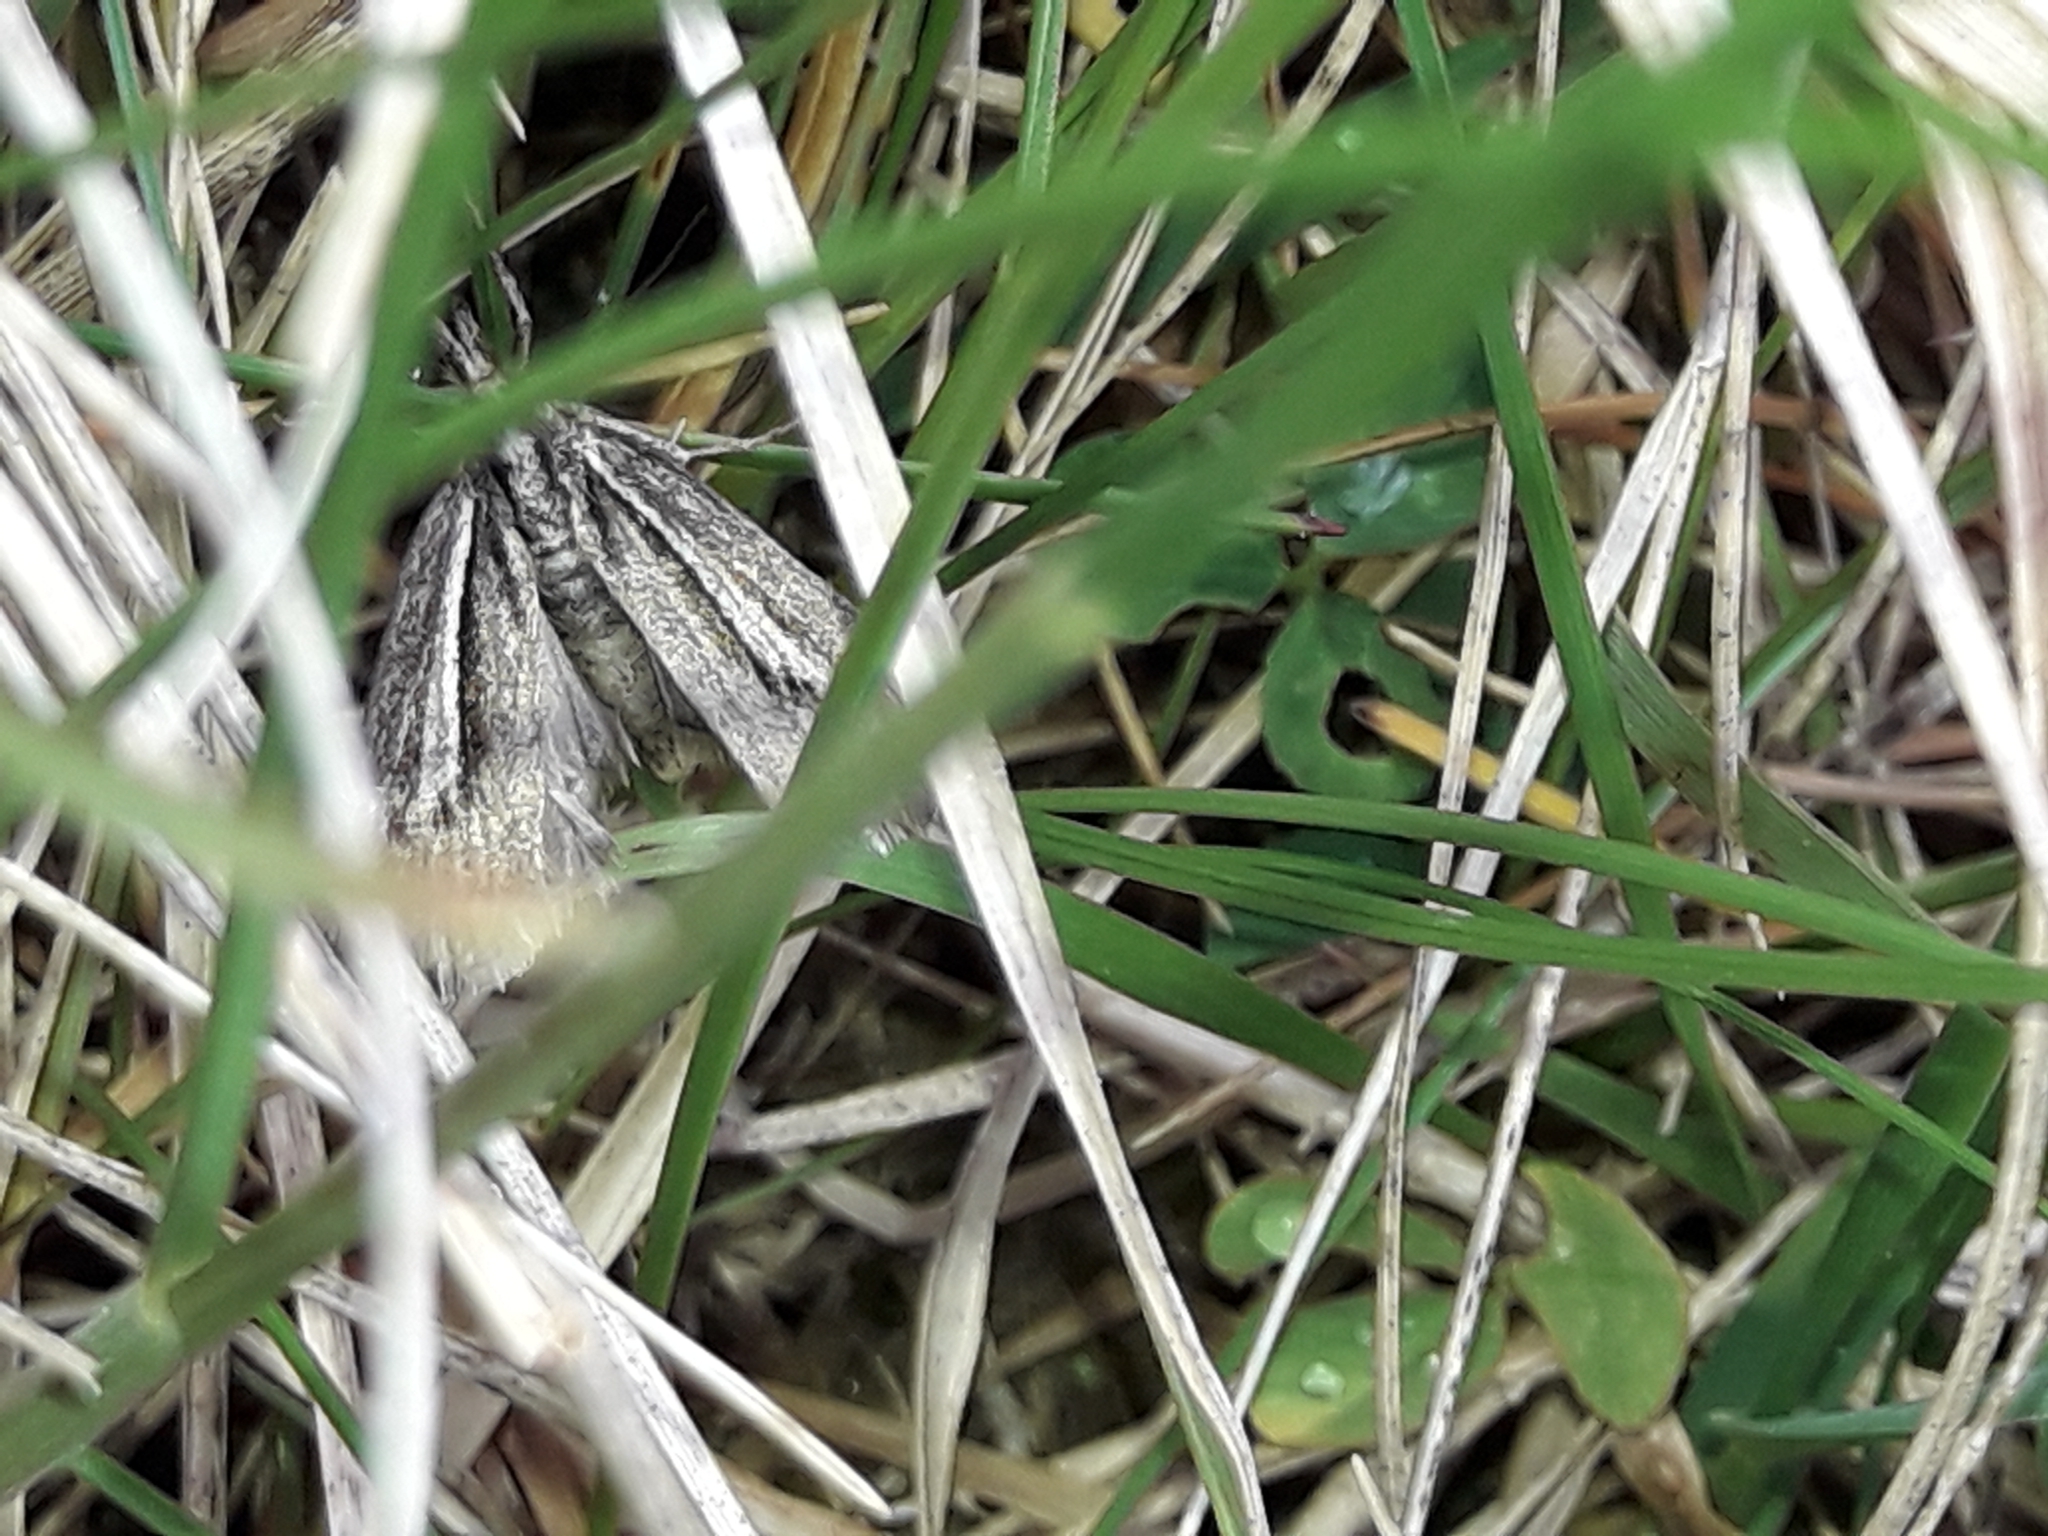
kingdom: Animalia
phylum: Arthropoda
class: Insecta
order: Lepidoptera
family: Crambidae
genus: Orocrambus
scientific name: Orocrambus machaeristes
